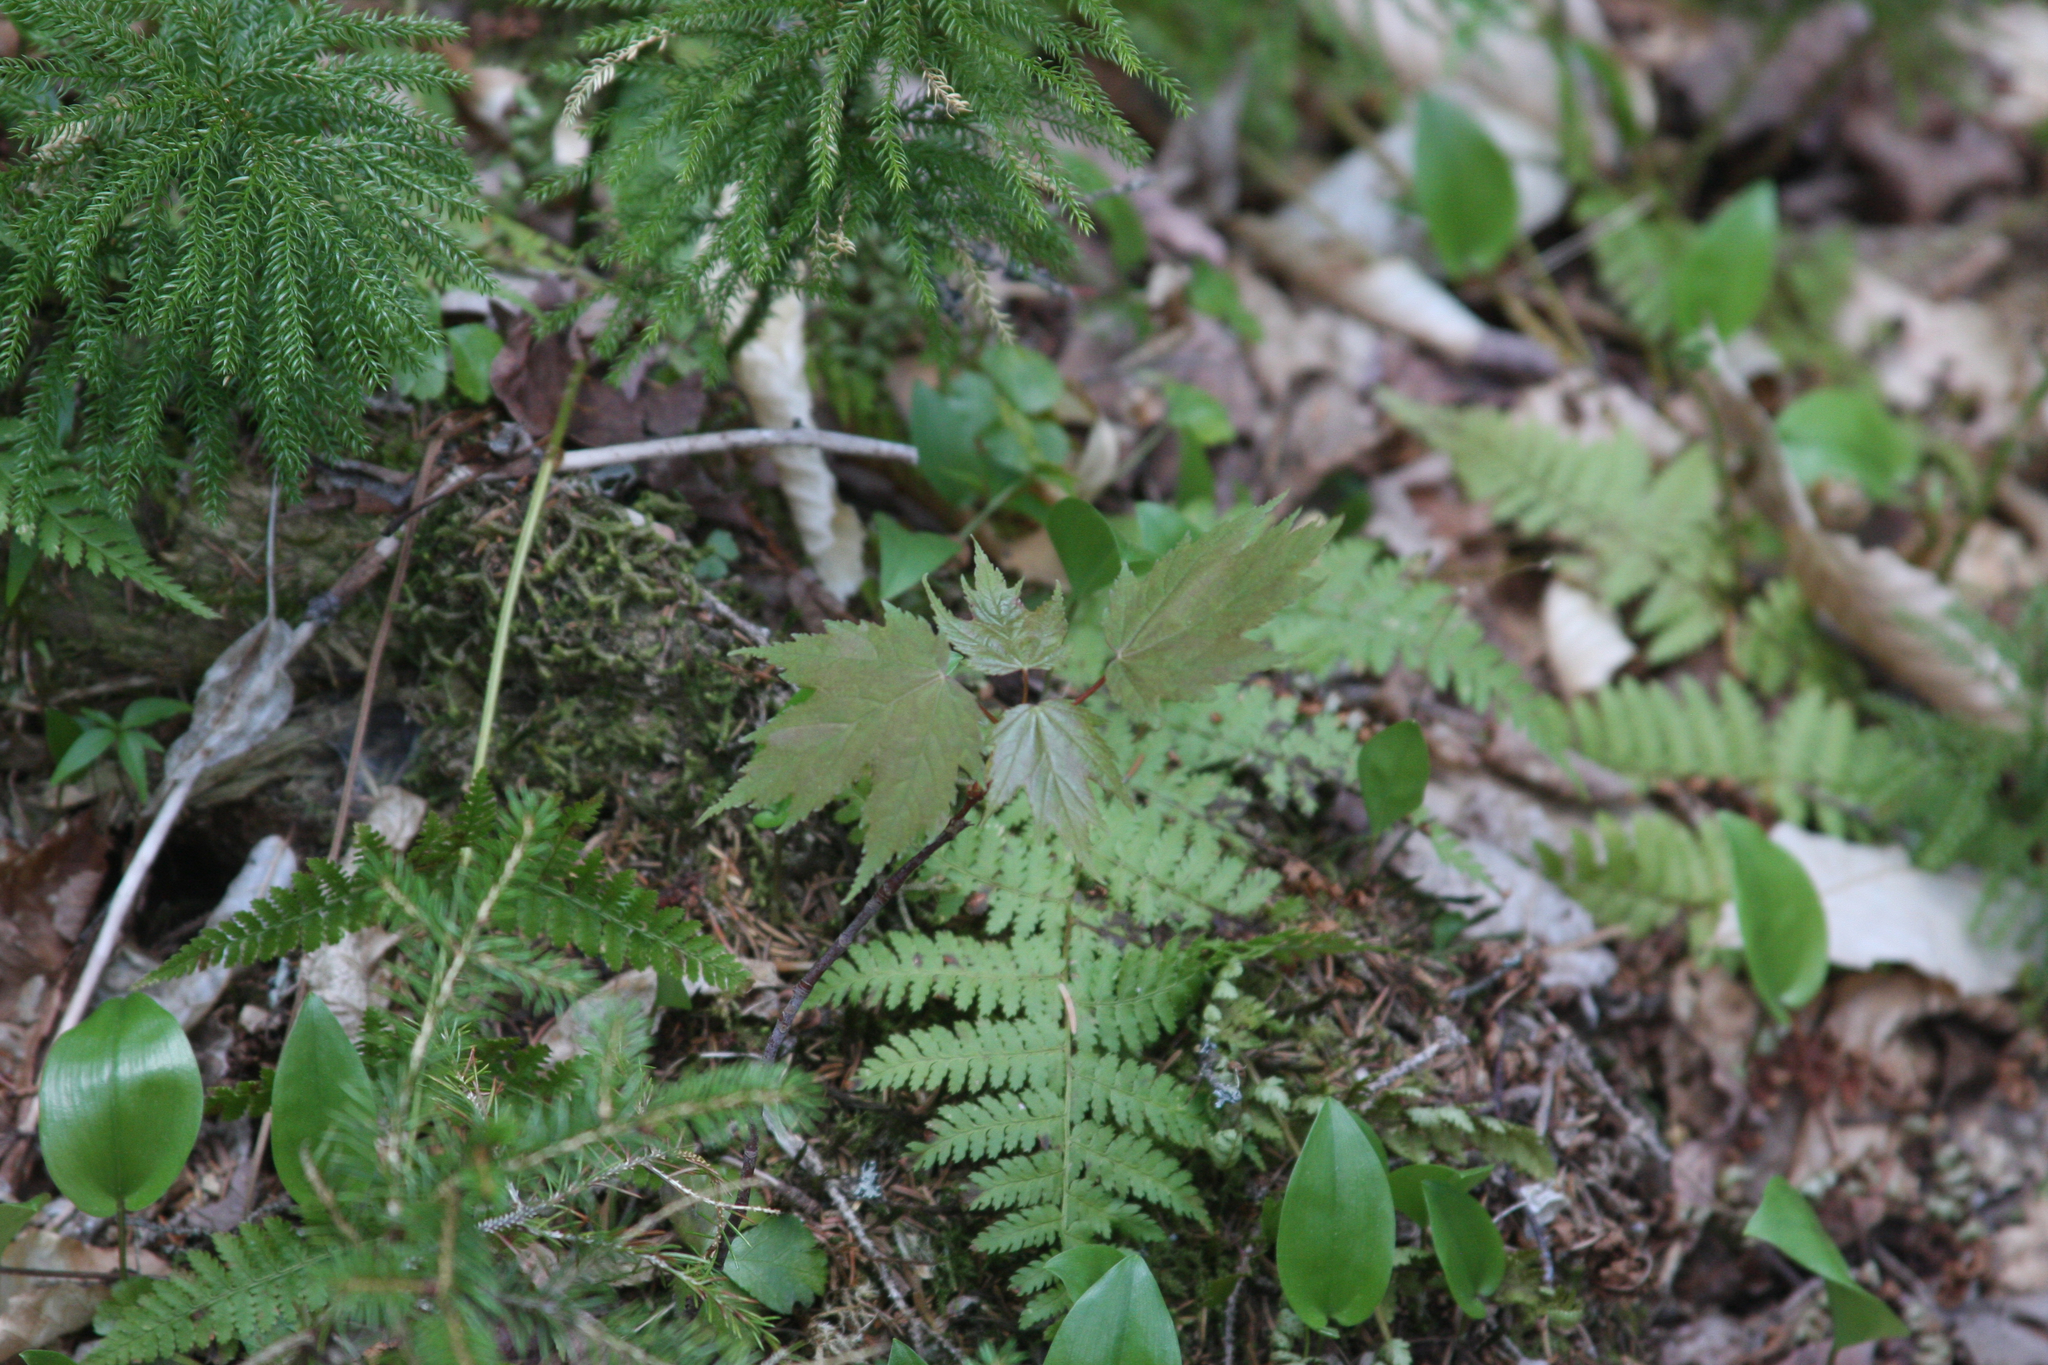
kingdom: Plantae
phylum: Tracheophyta
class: Liliopsida
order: Asparagales
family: Asparagaceae
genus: Maianthemum
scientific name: Maianthemum canadense
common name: False lily-of-the-valley
